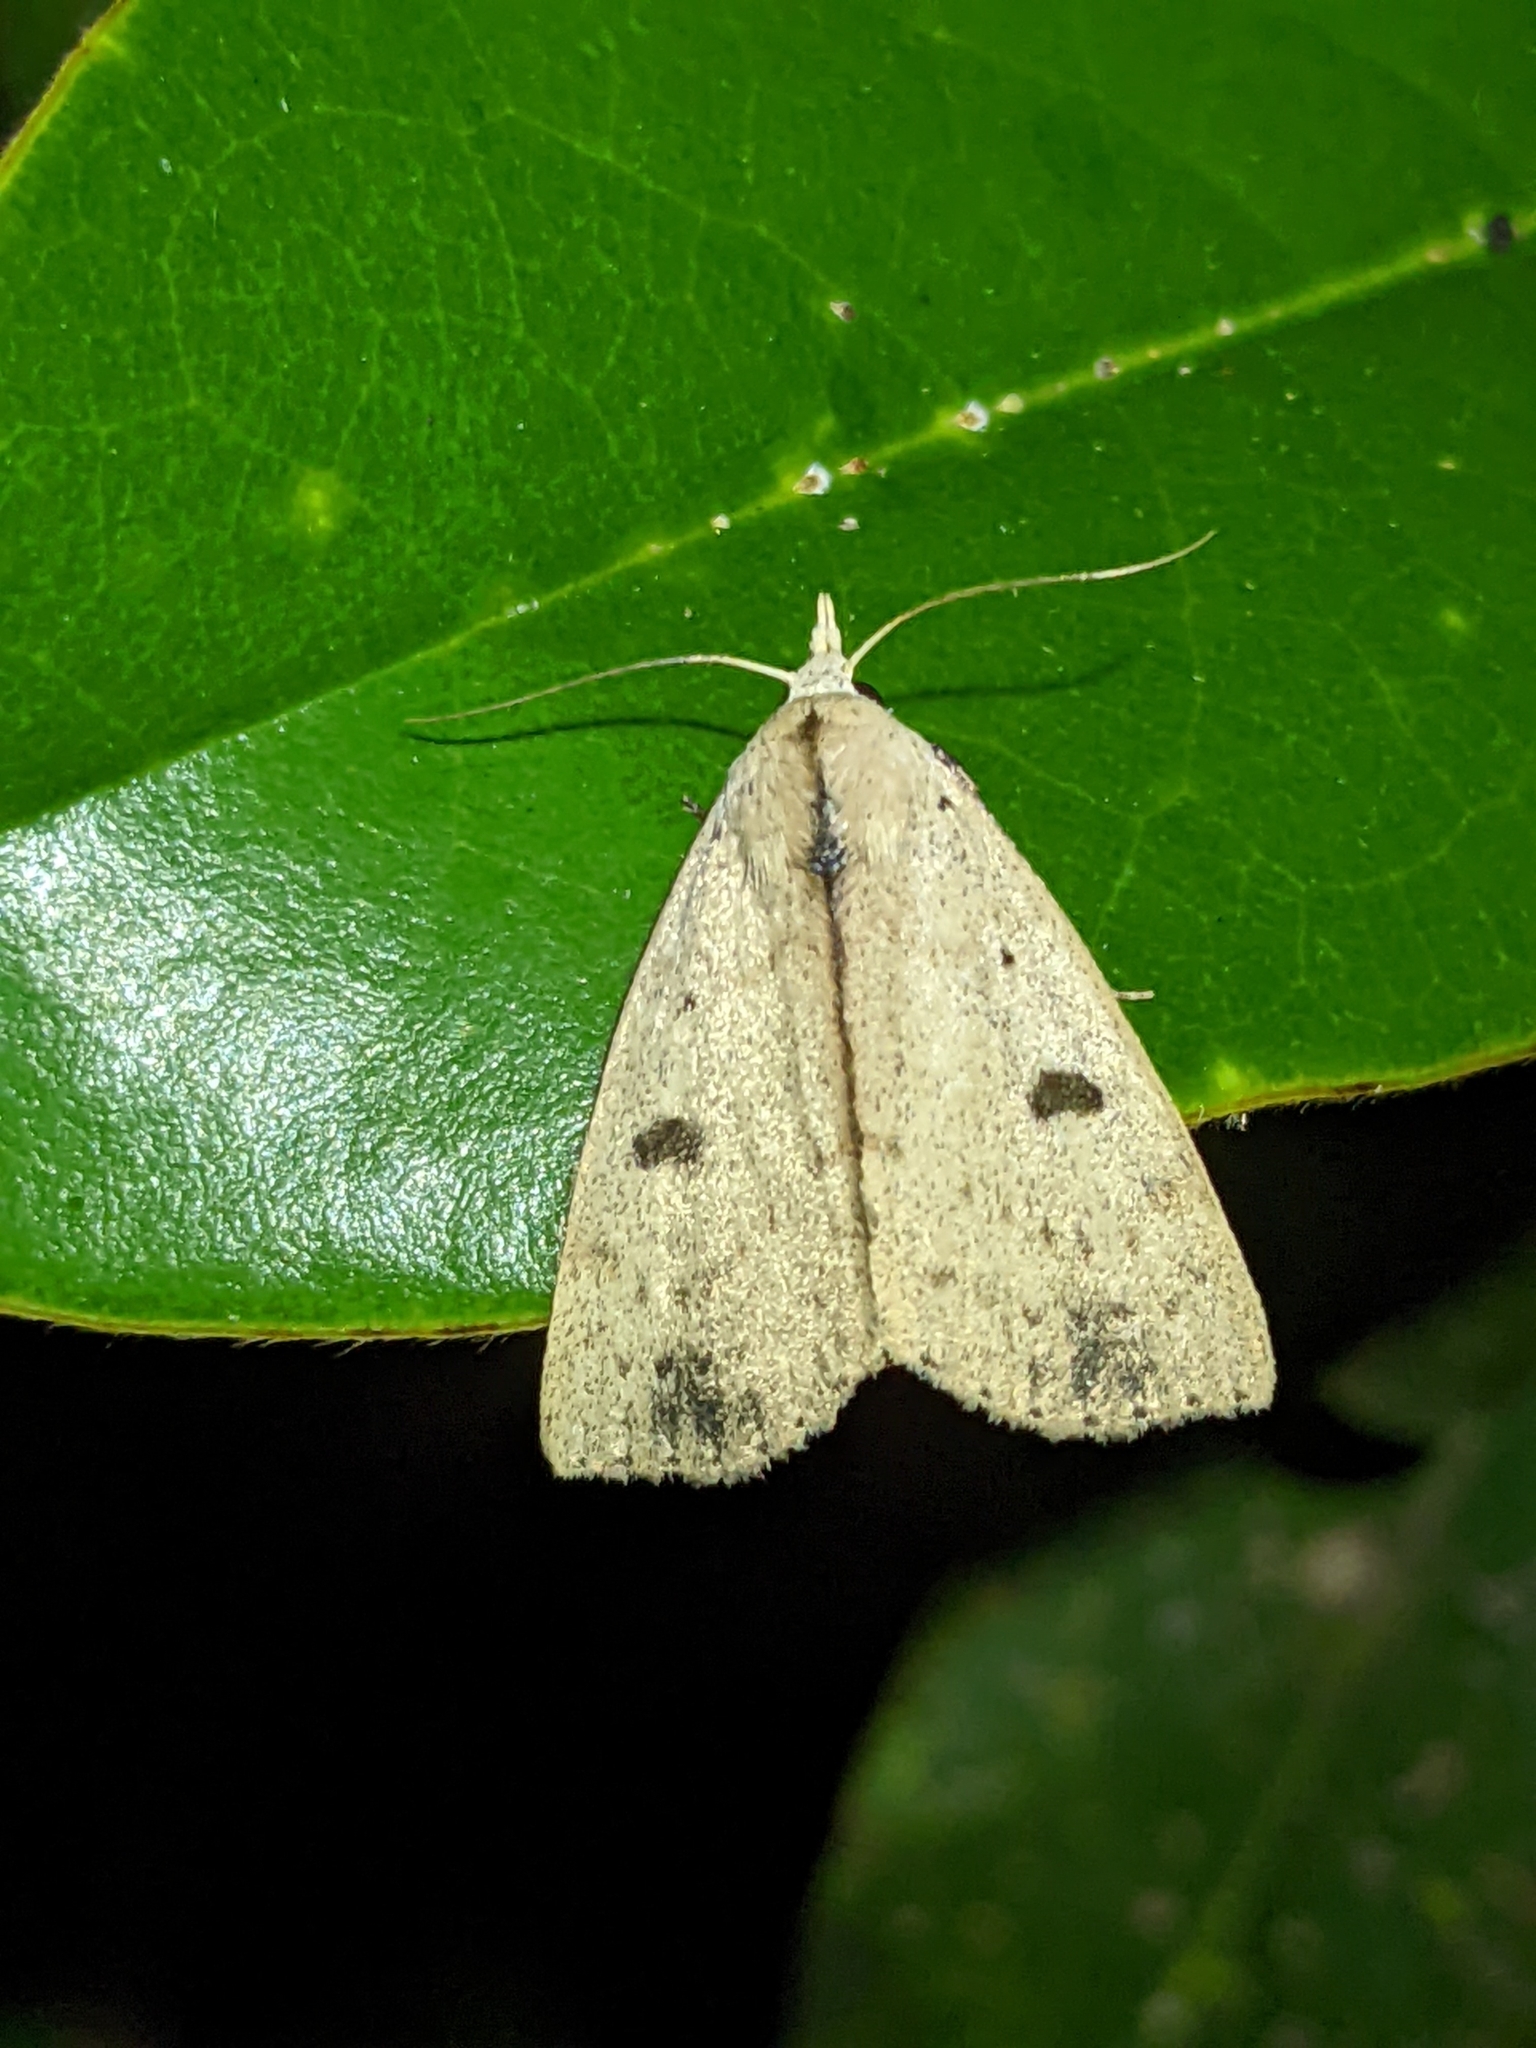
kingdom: Animalia
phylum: Arthropoda
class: Insecta
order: Lepidoptera
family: Erebidae
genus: Scolecocampa
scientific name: Scolecocampa liburna
